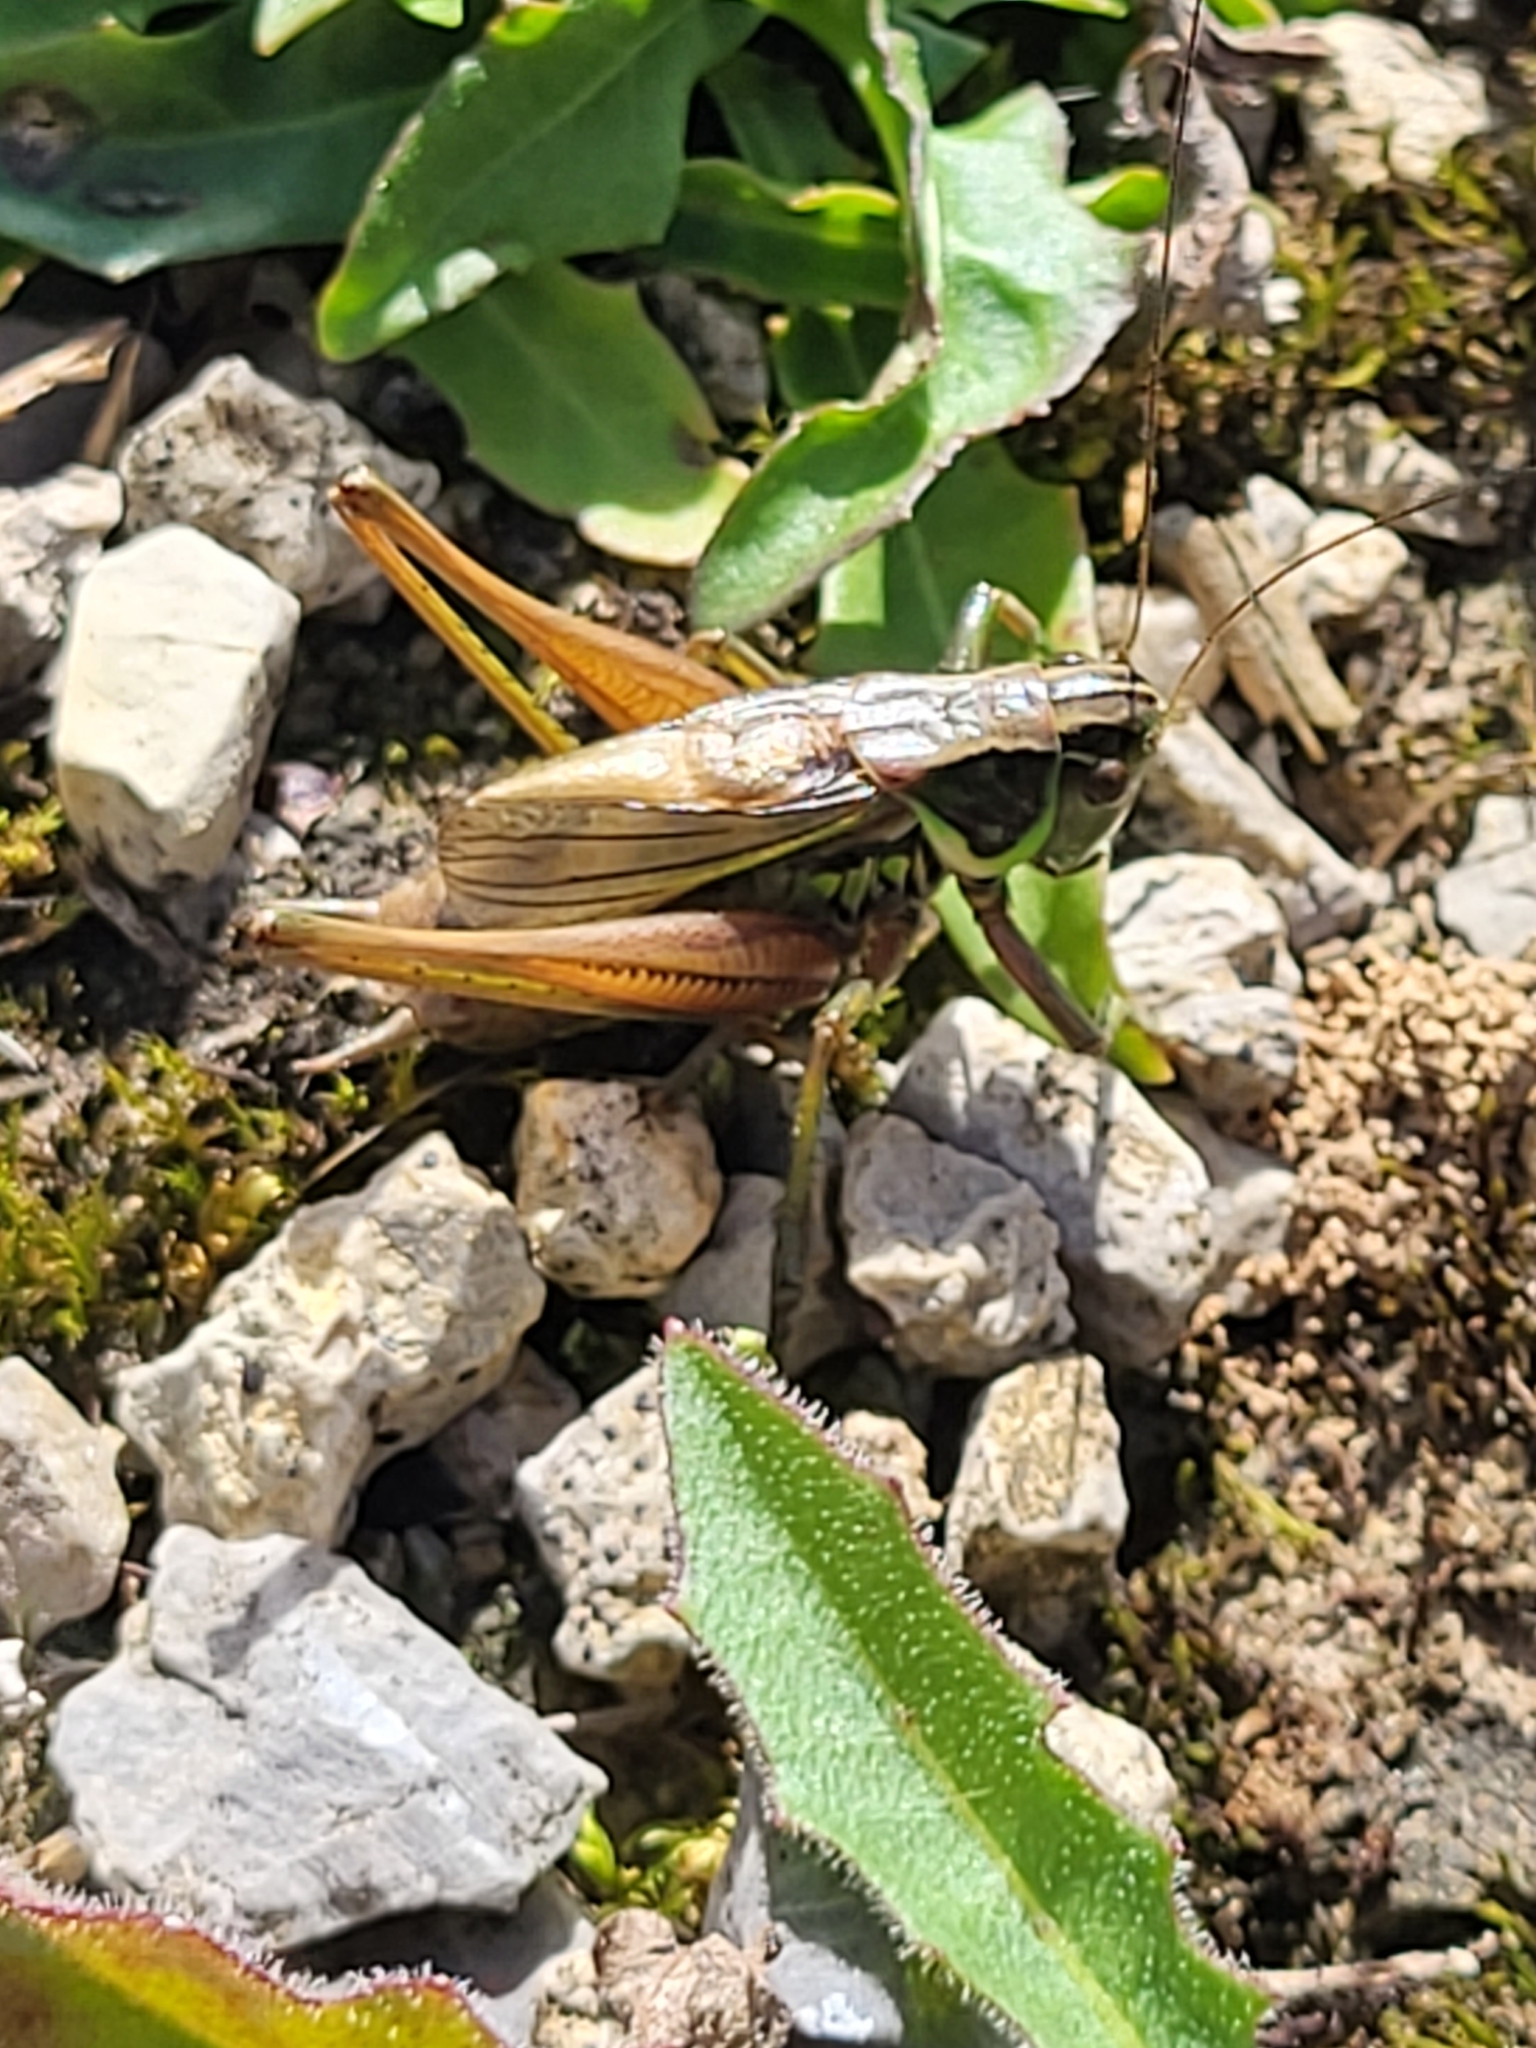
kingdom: Animalia
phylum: Arthropoda
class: Insecta
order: Orthoptera
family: Tettigoniidae
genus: Roeseliana
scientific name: Roeseliana roeselii
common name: Roesel's bush cricket
